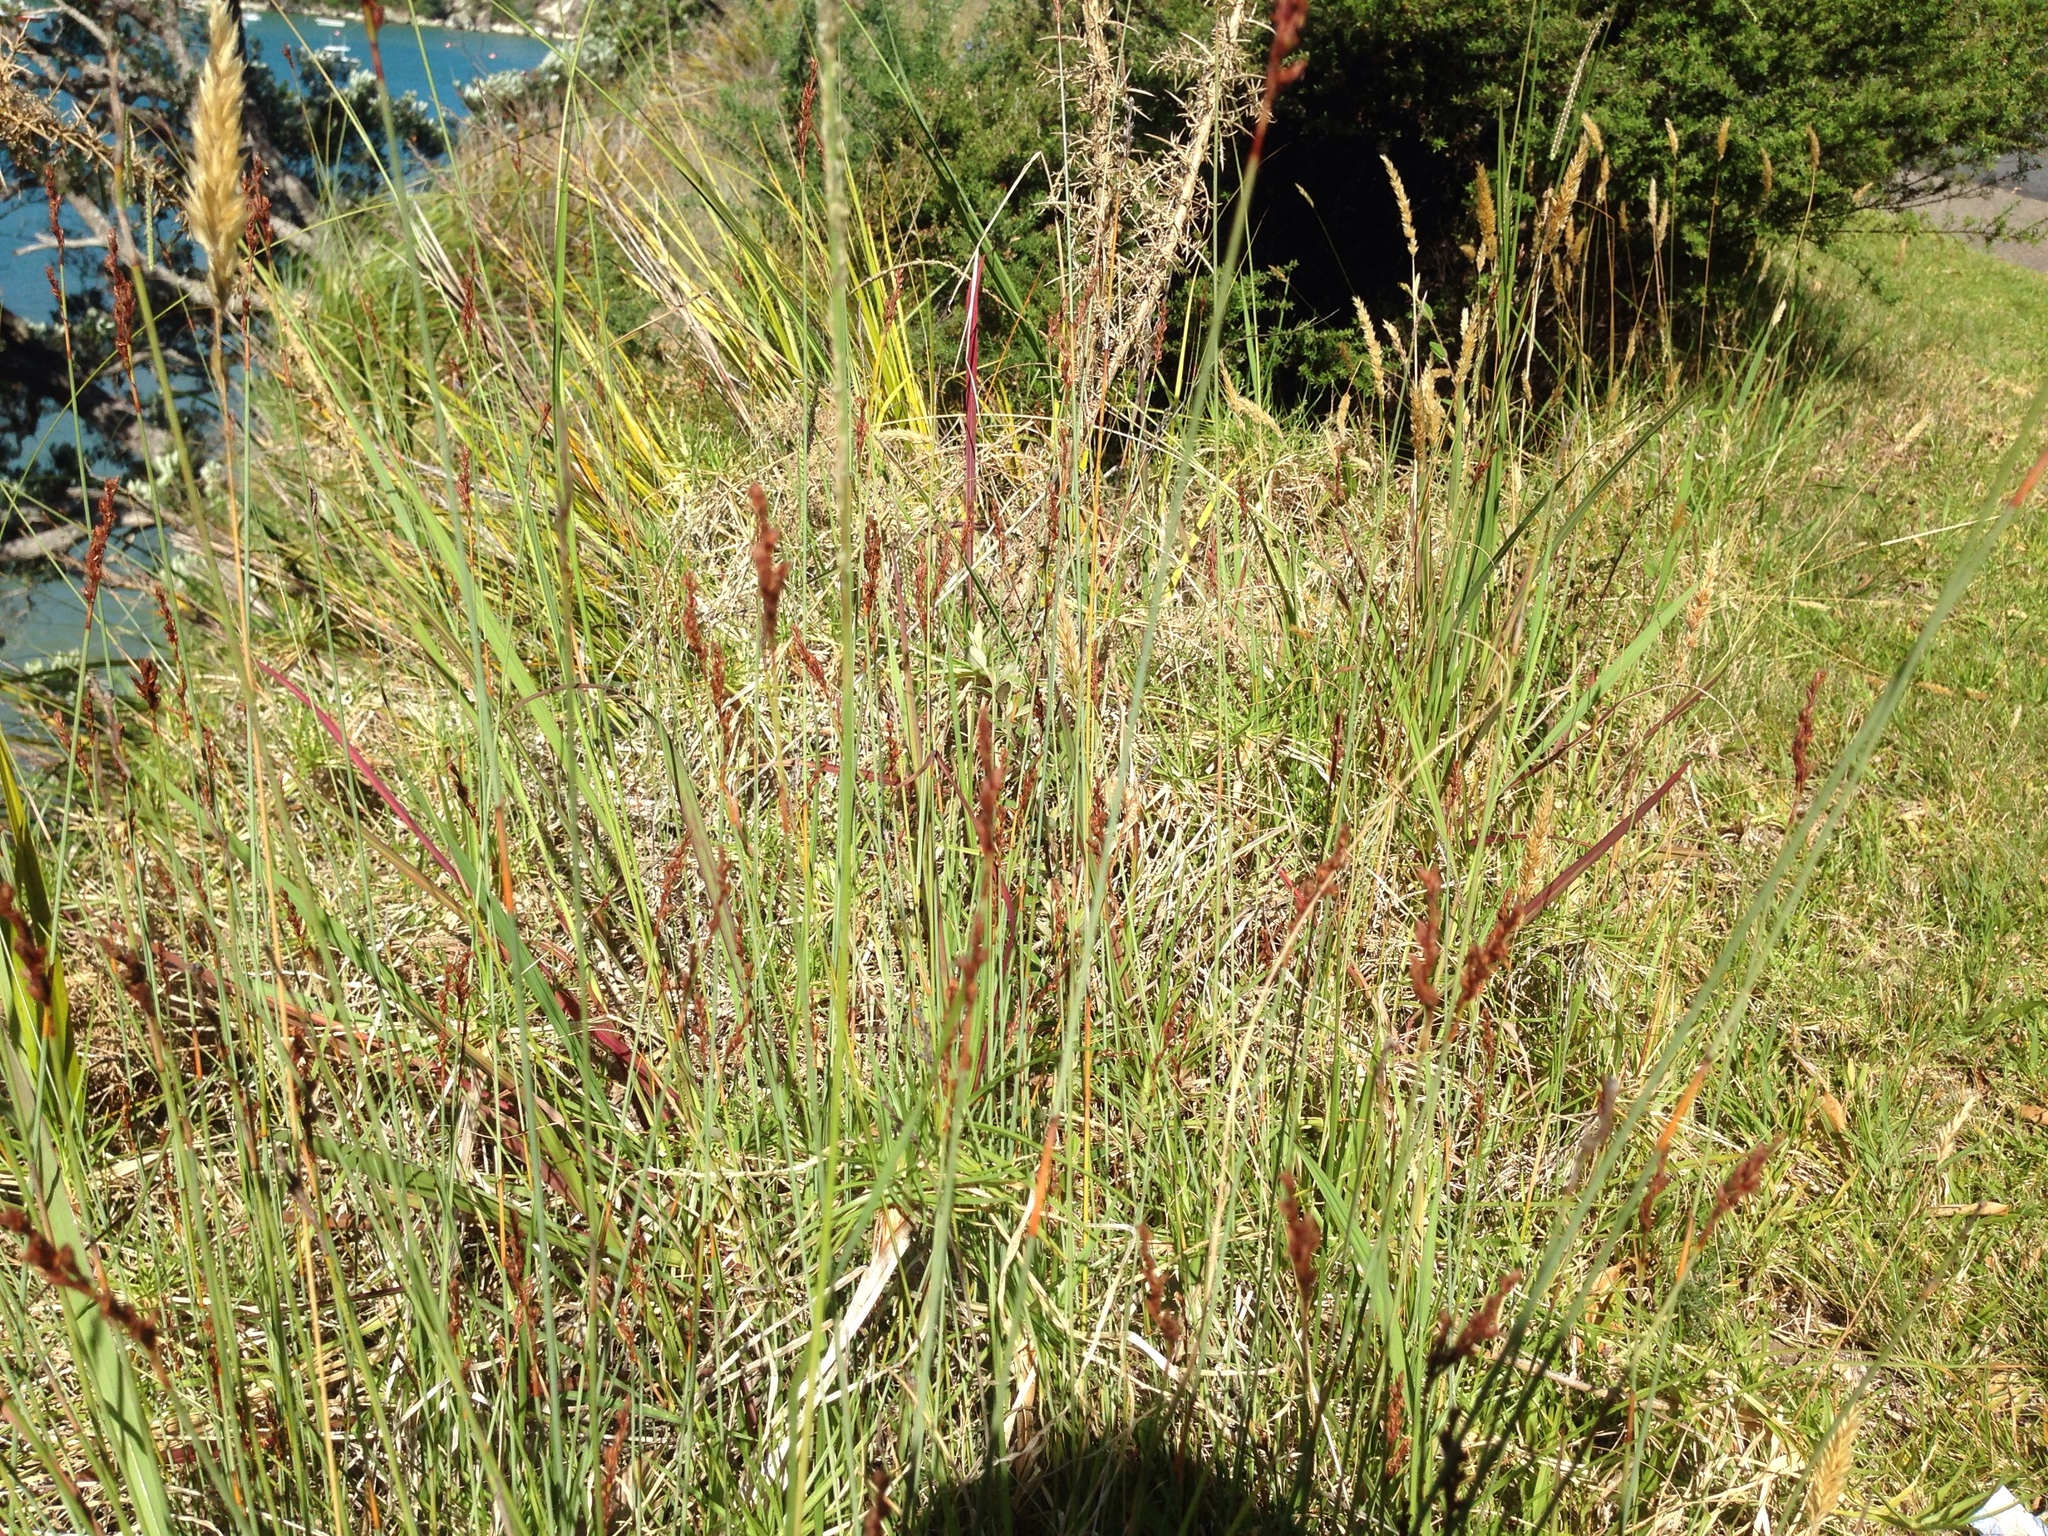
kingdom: Plantae
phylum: Tracheophyta
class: Liliopsida
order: Poales
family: Cyperaceae
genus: Machaerina
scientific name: Machaerina juncea
